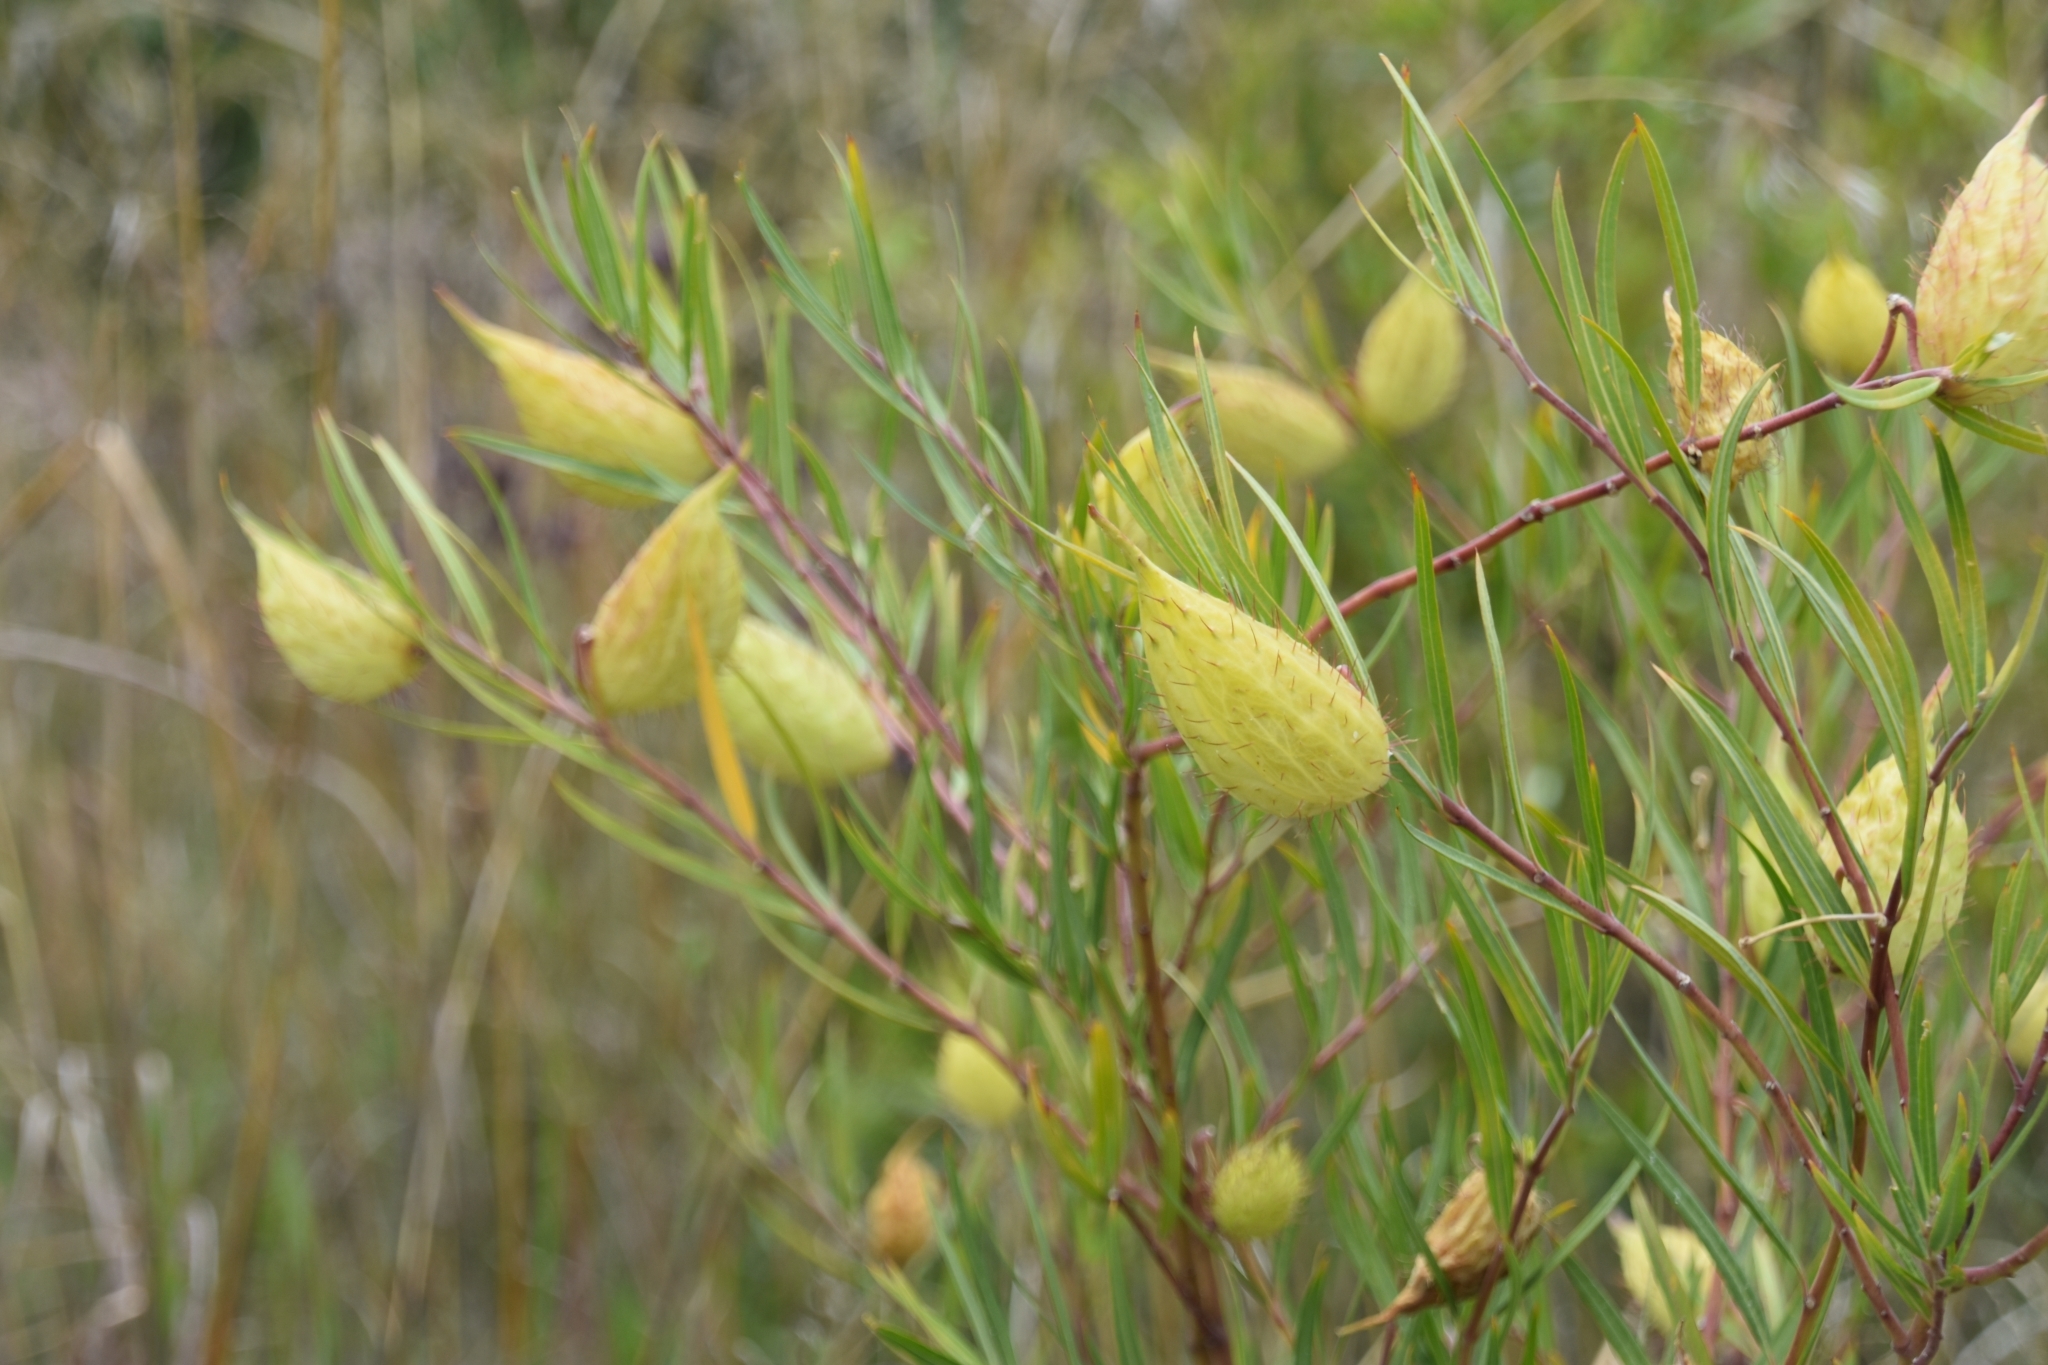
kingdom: Plantae
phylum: Tracheophyta
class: Magnoliopsida
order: Gentianales
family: Apocynaceae
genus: Gomphocarpus
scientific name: Gomphocarpus fruticosus
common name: Milkweed
